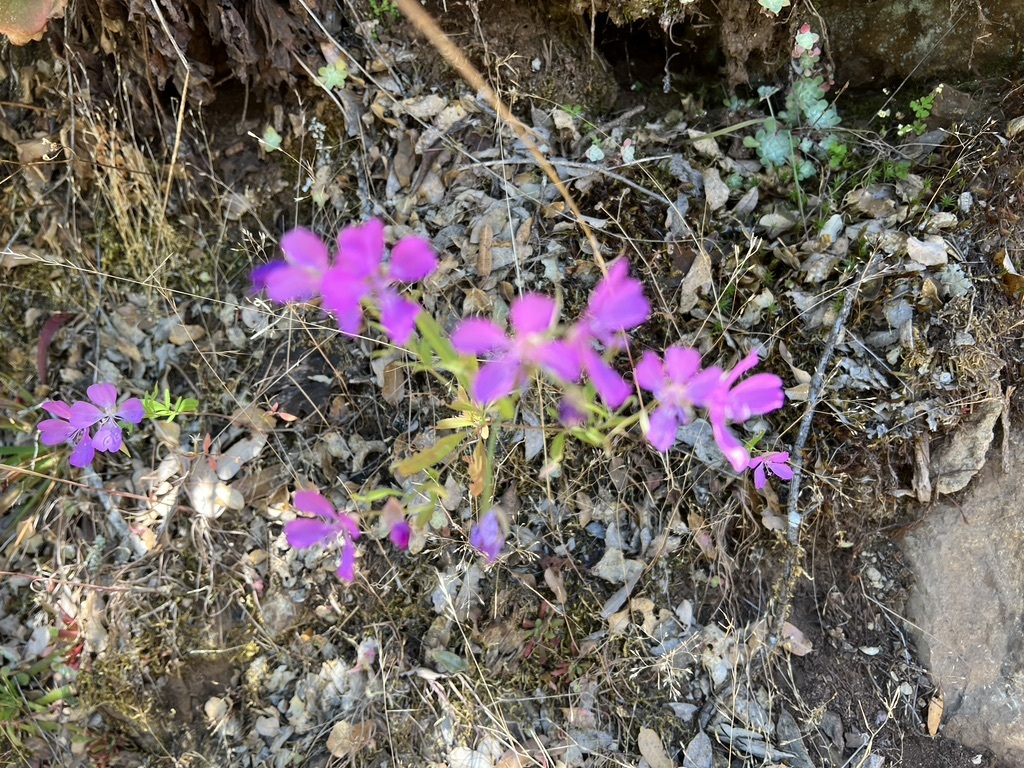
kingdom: Plantae
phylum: Tracheophyta
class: Magnoliopsida
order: Myrtales
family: Onagraceae
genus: Clarkia
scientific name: Clarkia biloba
